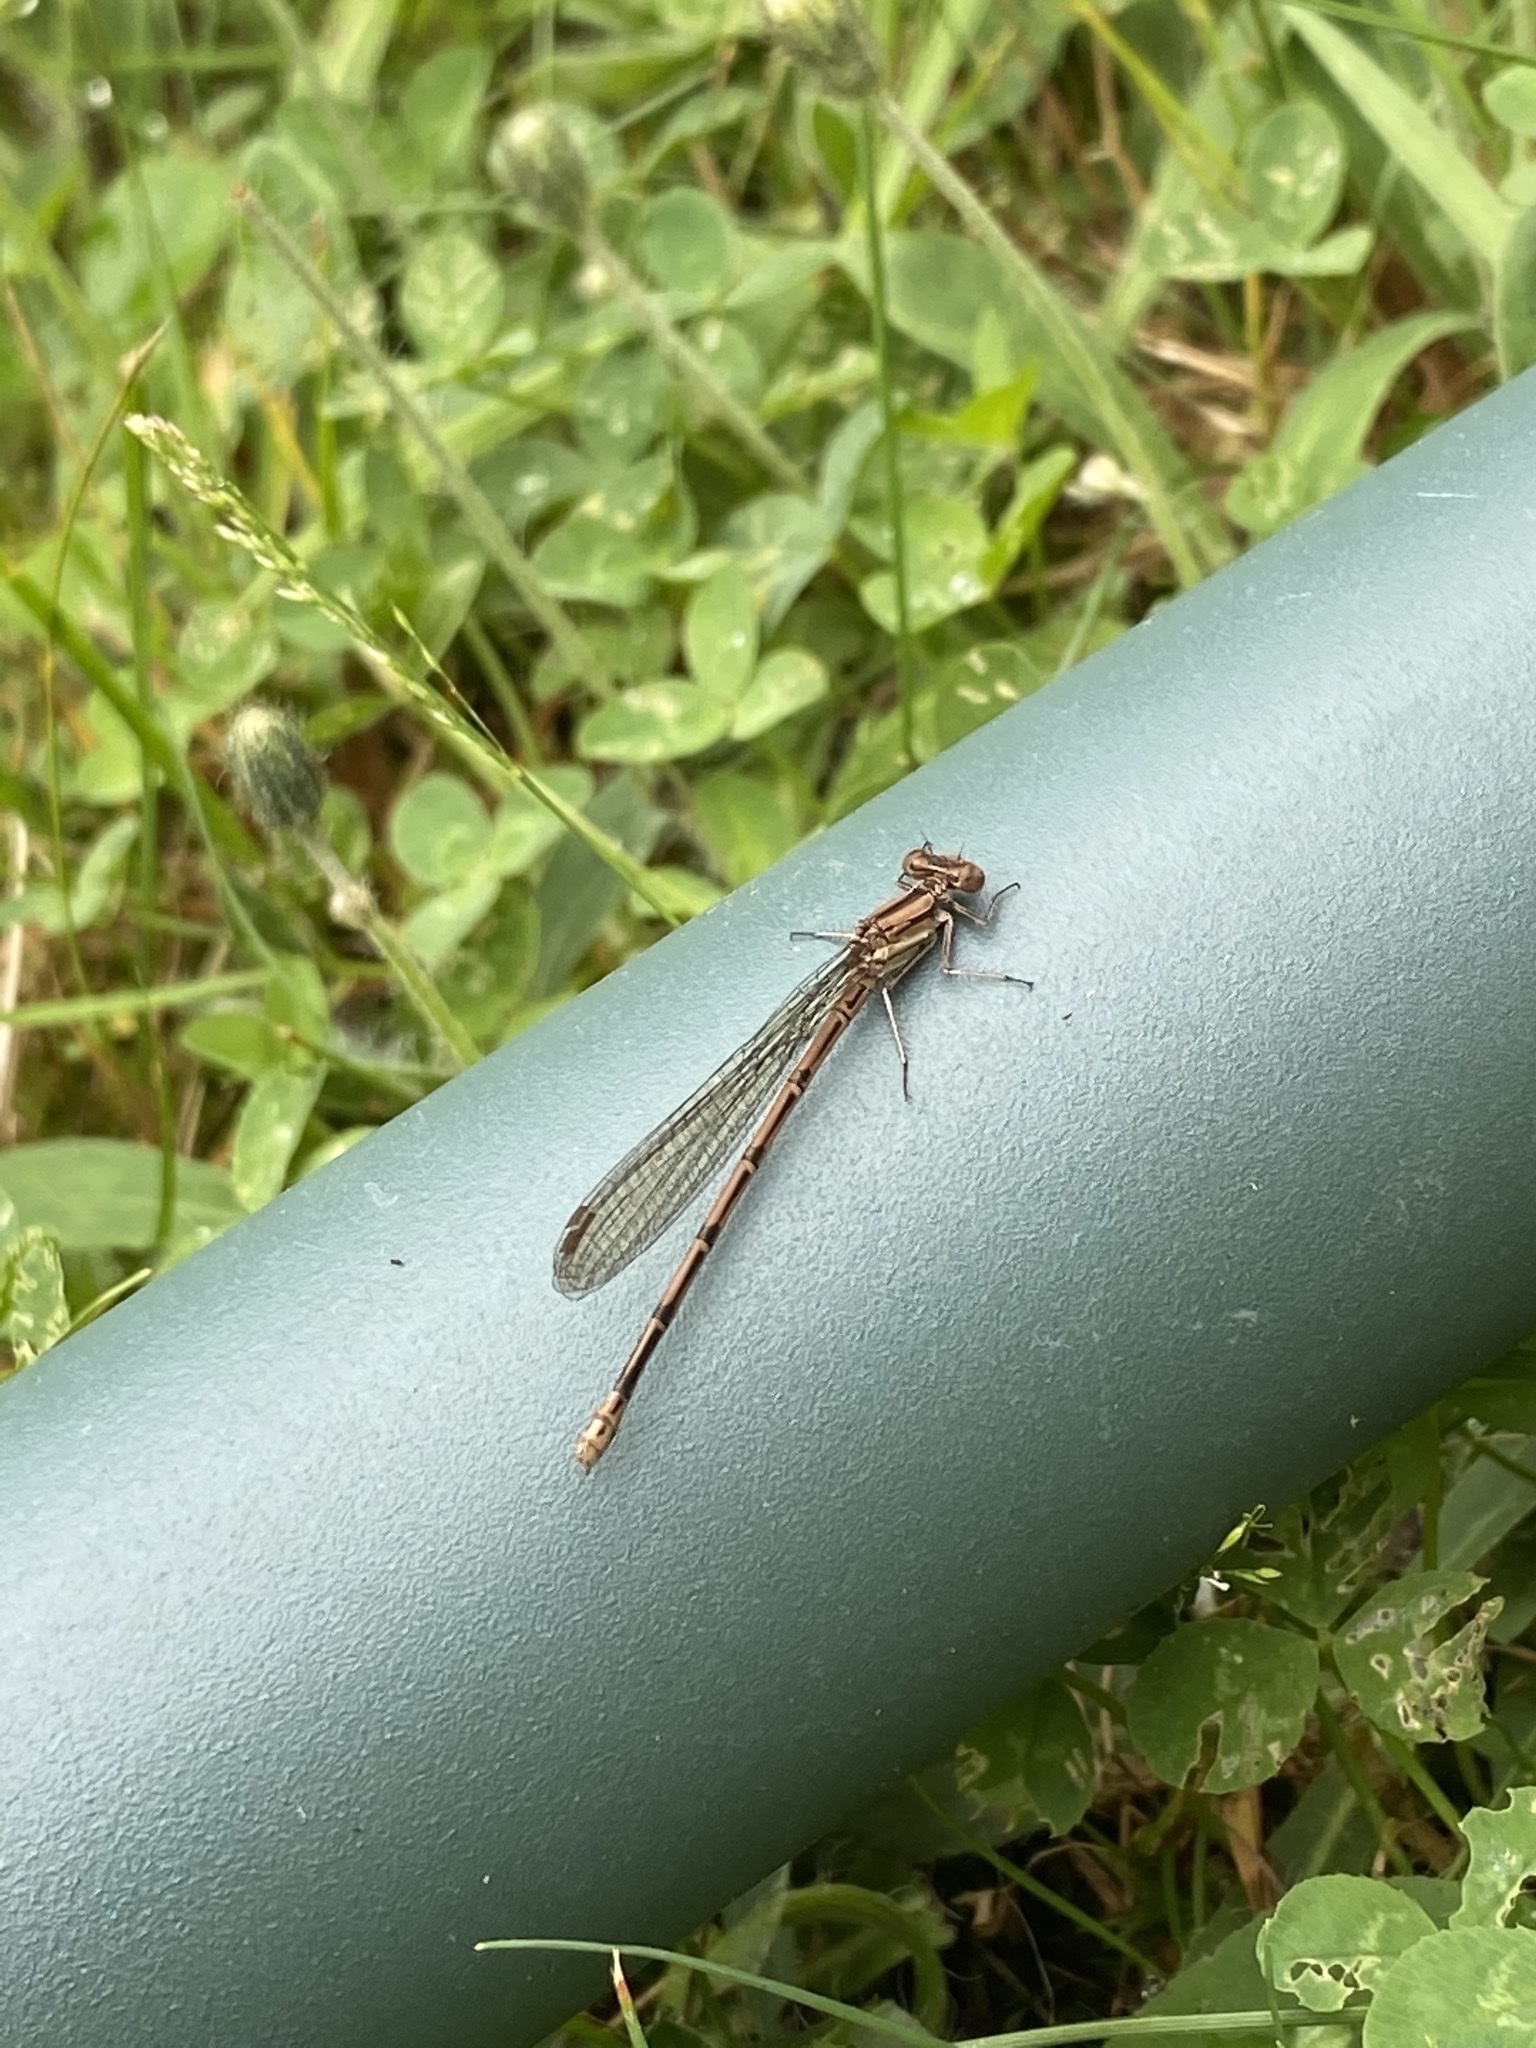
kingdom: Animalia
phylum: Arthropoda
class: Insecta
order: Odonata
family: Coenagrionidae
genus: Argia
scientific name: Argia fumipennis
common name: Variable dancer
